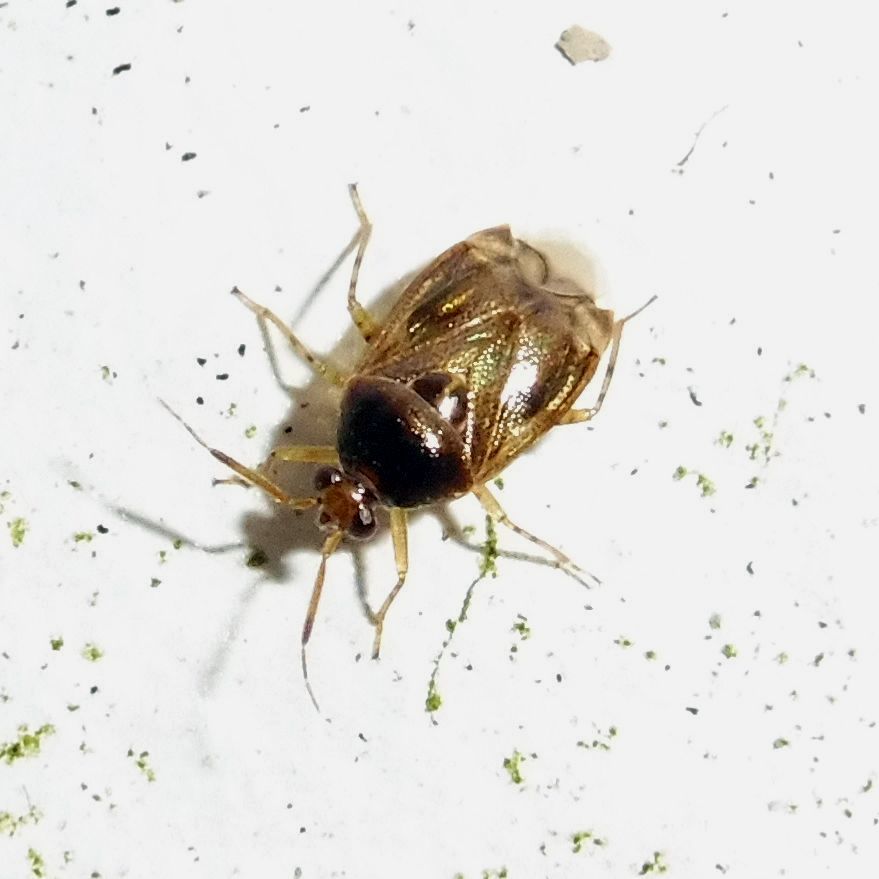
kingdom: Animalia
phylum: Arthropoda
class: Insecta
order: Hemiptera
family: Miridae
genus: Deraeocoris
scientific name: Deraeocoris lutescens
